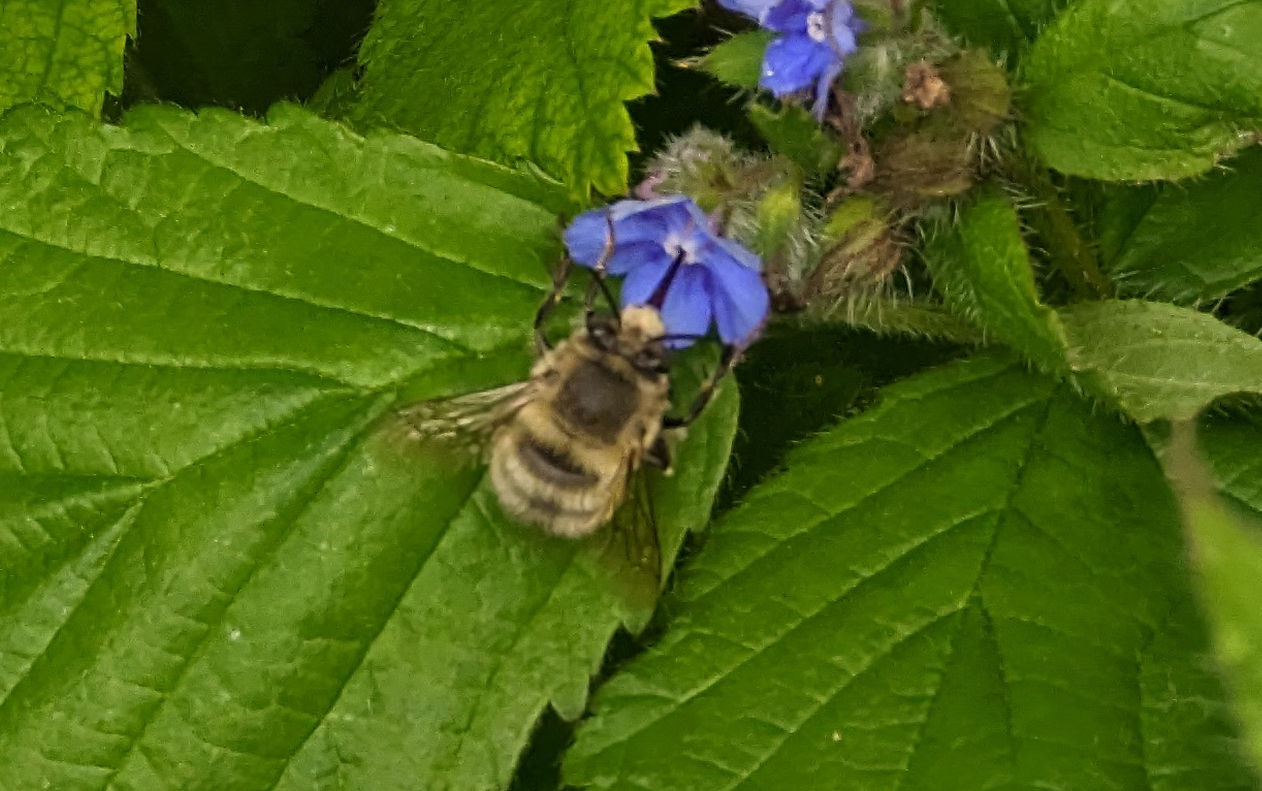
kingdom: Animalia
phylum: Arthropoda
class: Insecta
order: Hymenoptera
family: Apidae
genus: Anthophora
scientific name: Anthophora plumipes
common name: Hairy-footed flower bee
